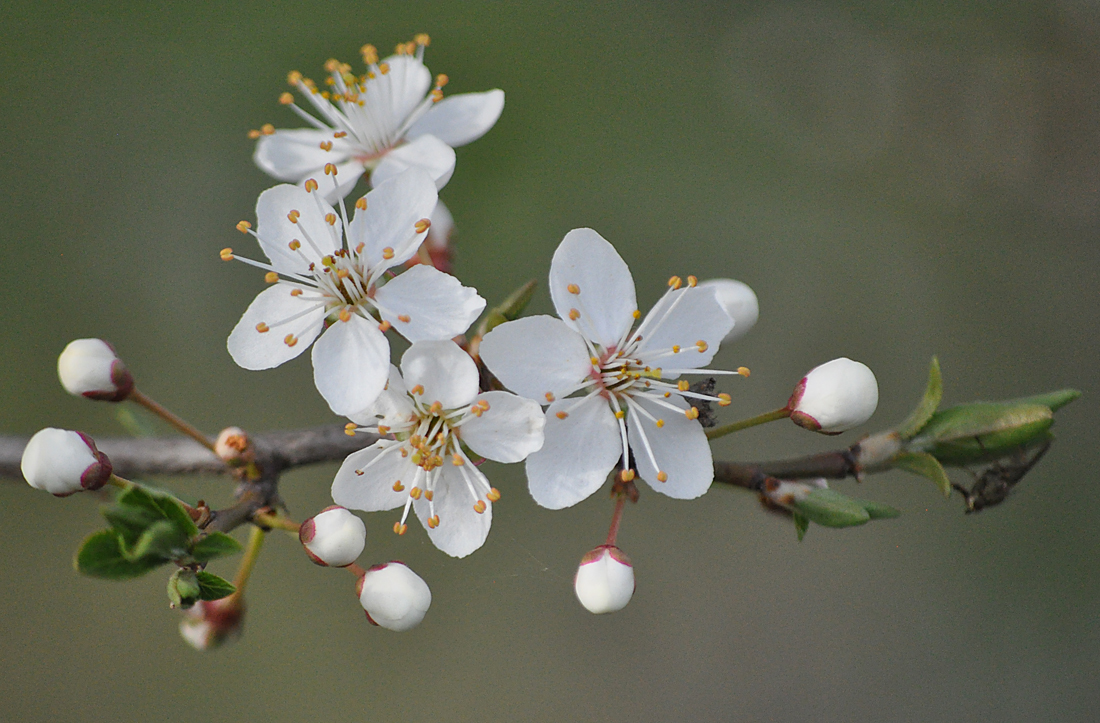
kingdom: Plantae
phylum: Tracheophyta
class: Magnoliopsida
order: Rosales
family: Rosaceae
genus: Prunus
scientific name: Prunus cerasifera
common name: Cherry plum
